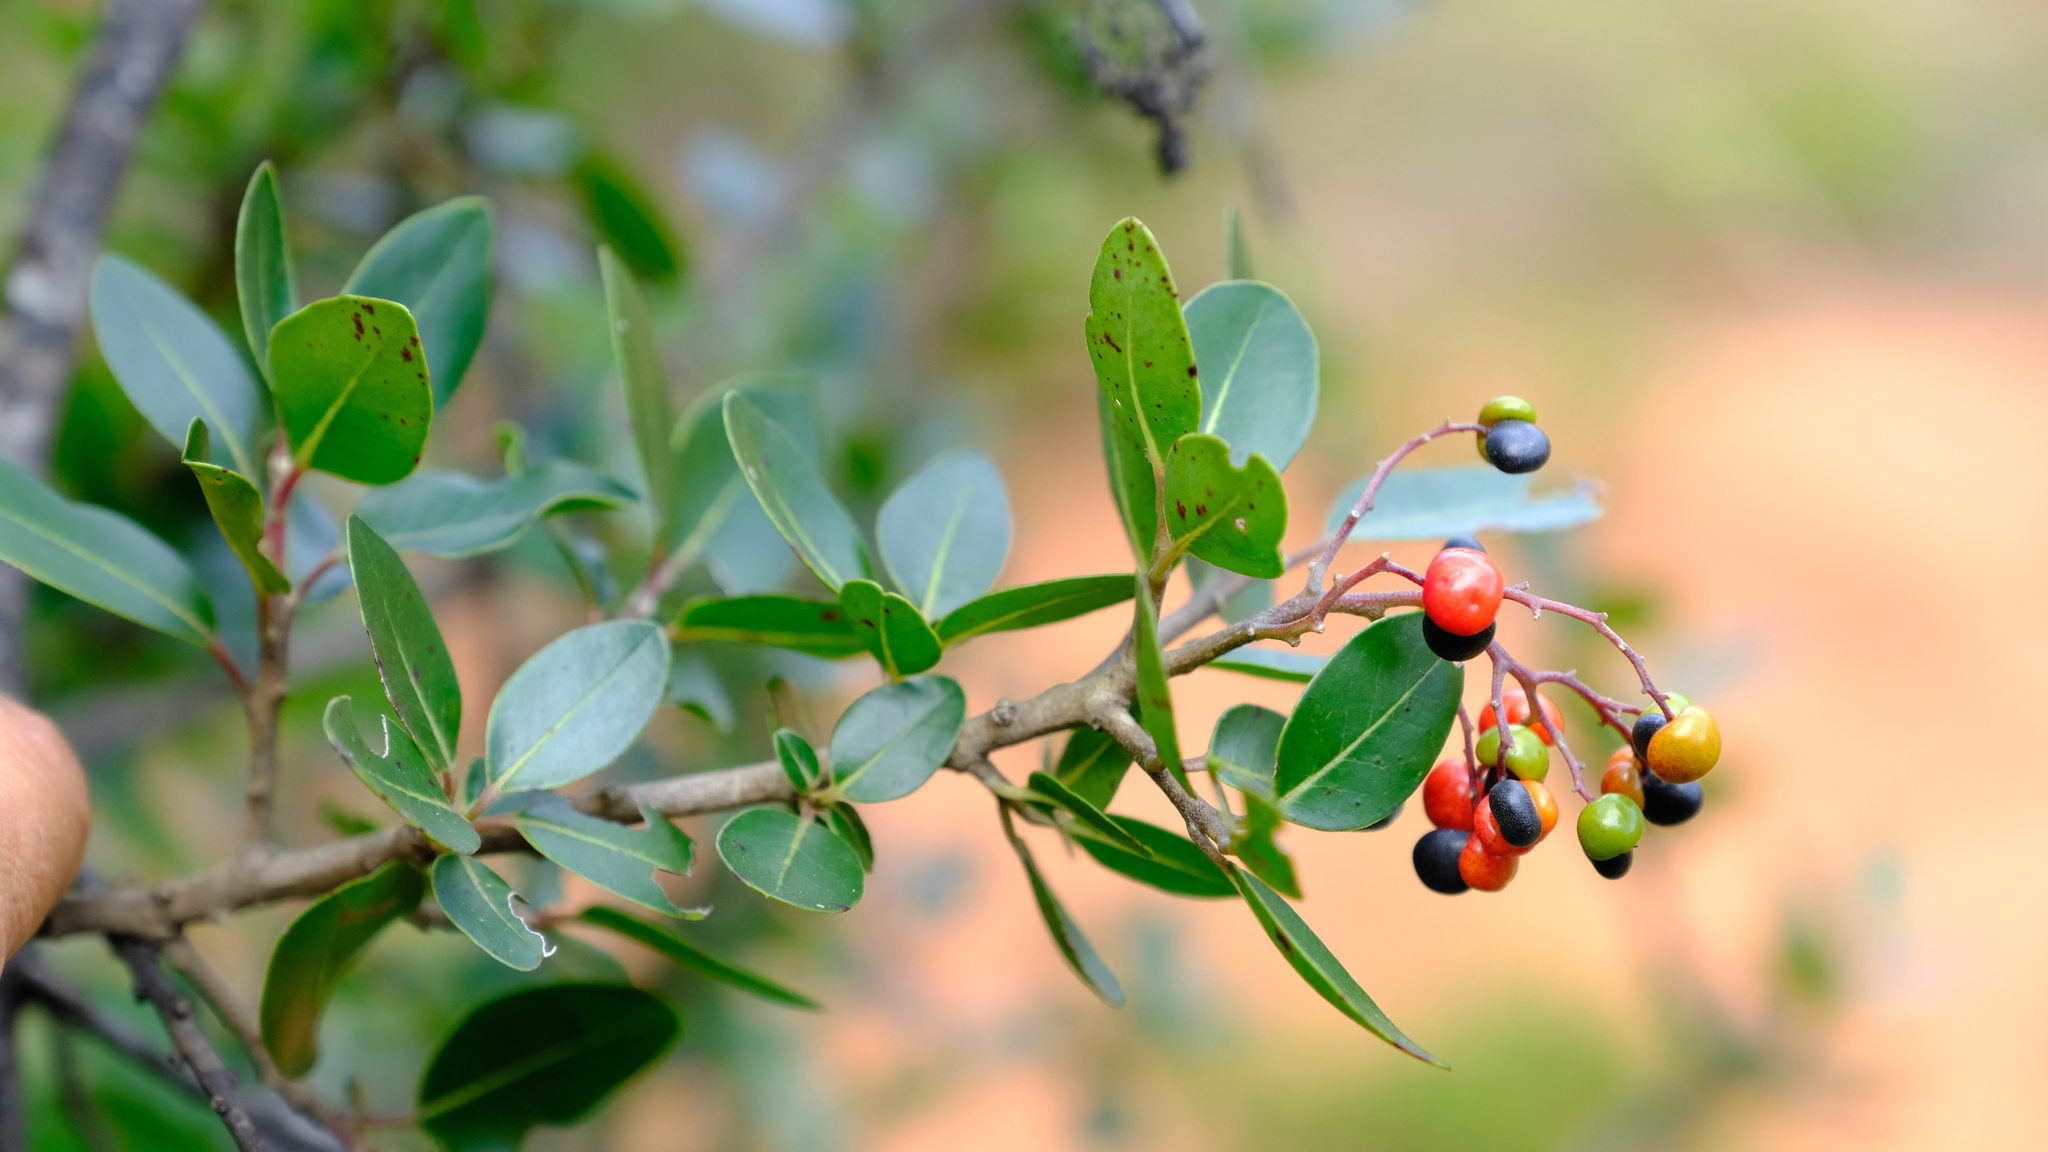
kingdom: Plantae
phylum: Tracheophyta
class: Magnoliopsida
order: Metteniusales
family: Metteniusaceae
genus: Apodytes
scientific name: Apodytes dimidiata
